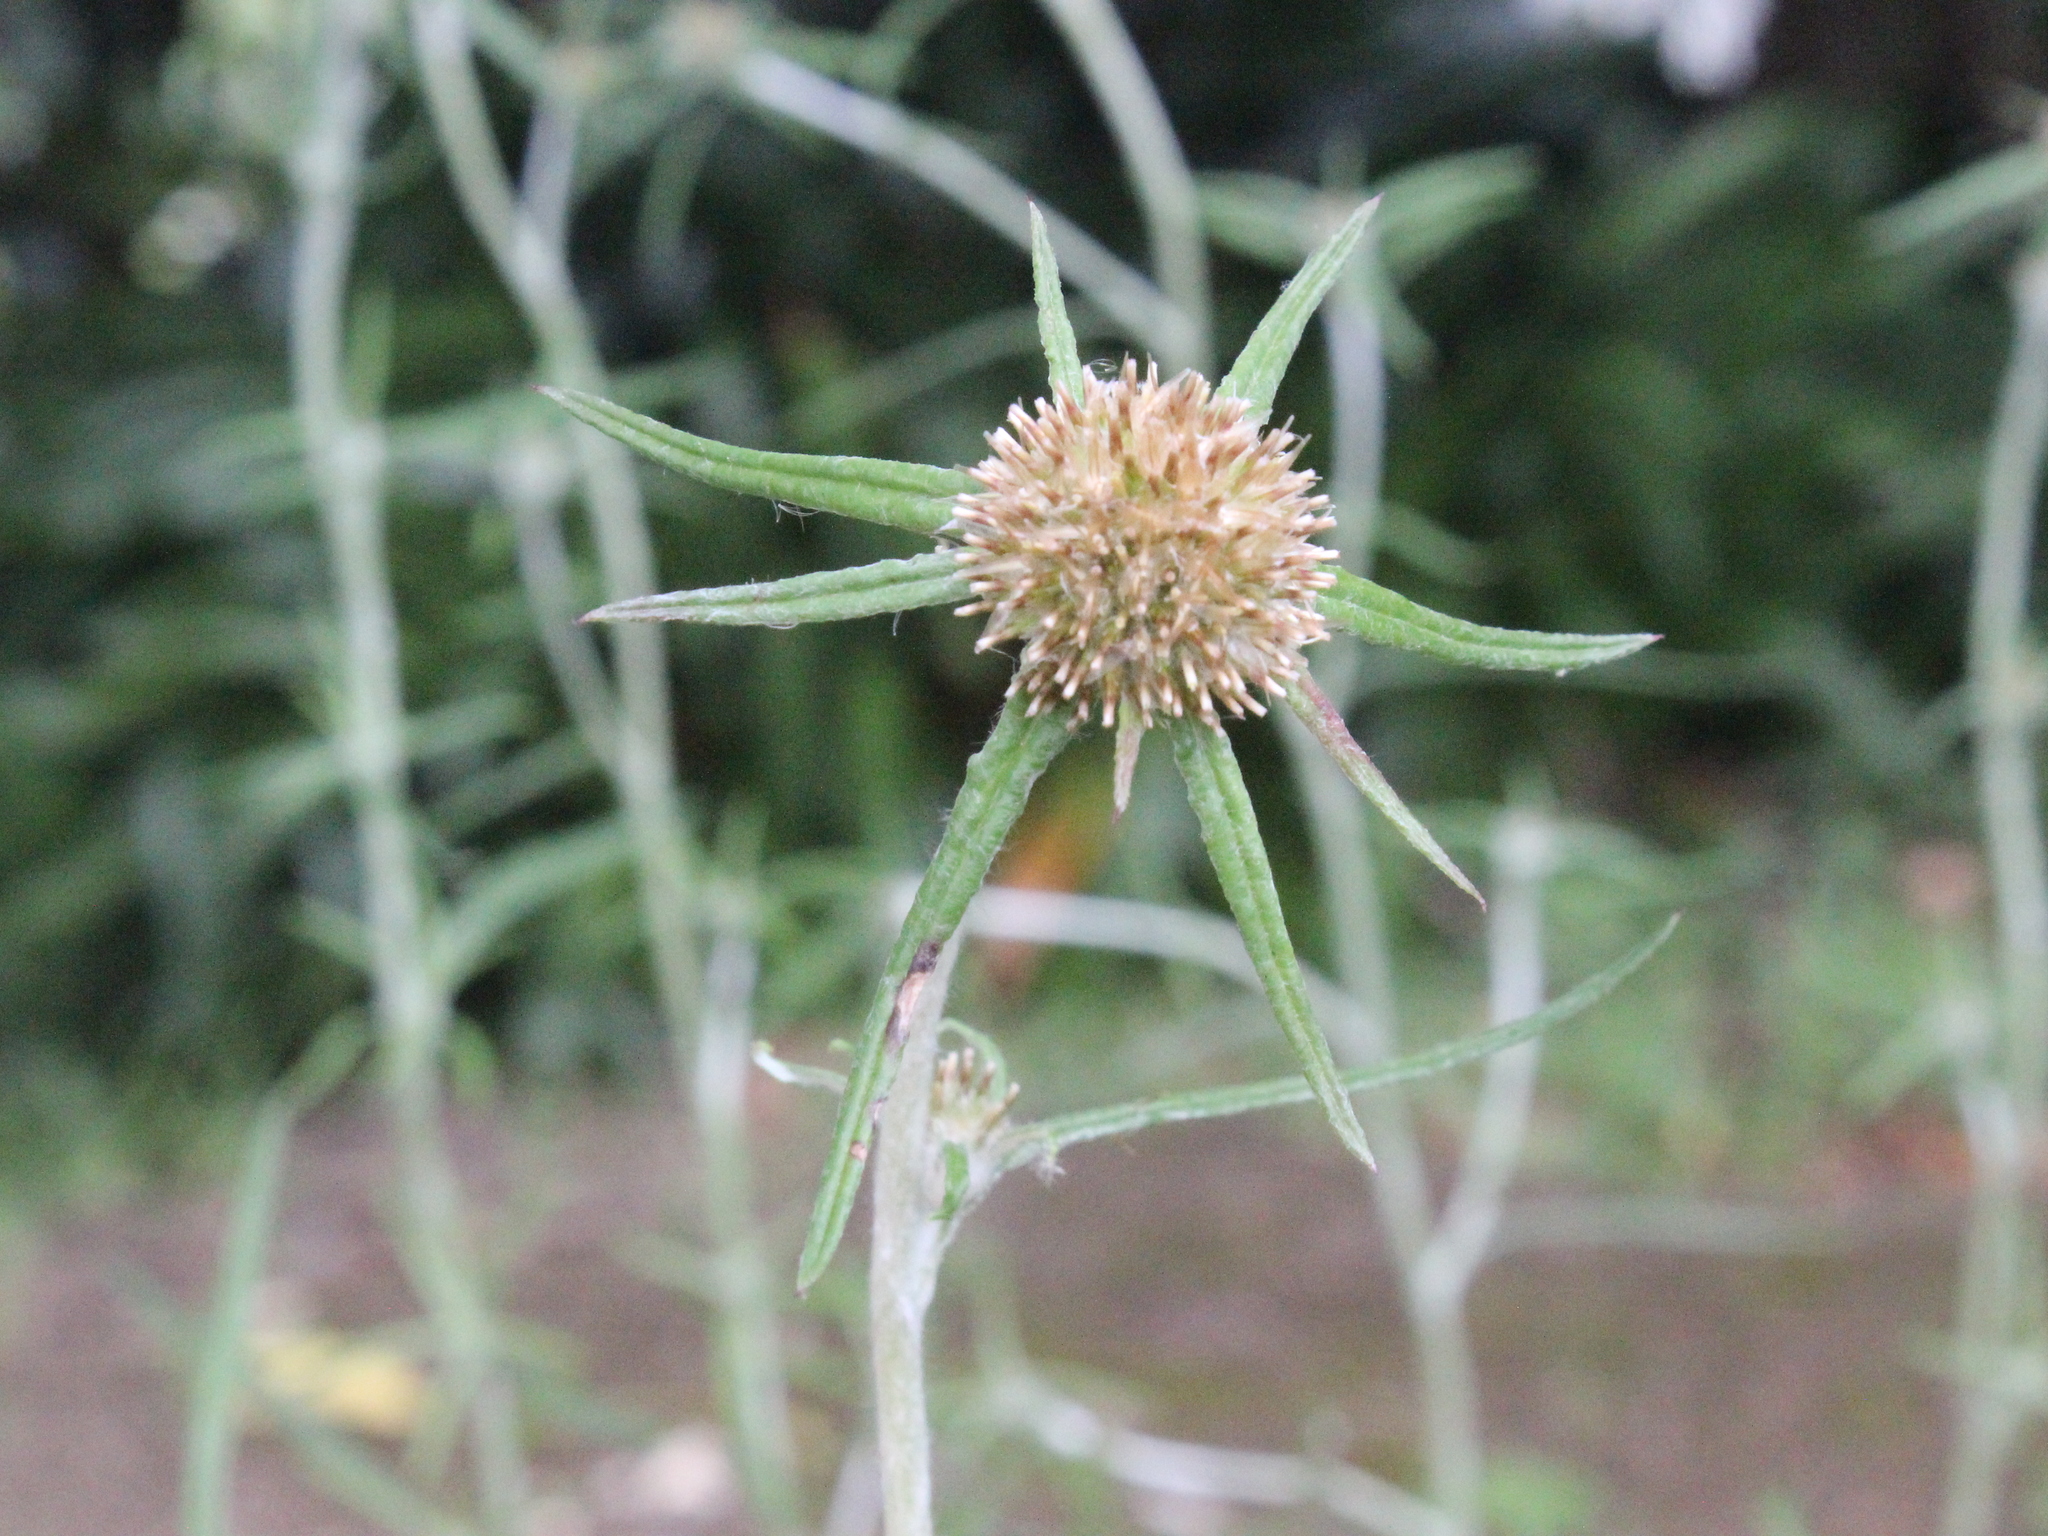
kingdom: Plantae
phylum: Tracheophyta
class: Magnoliopsida
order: Asterales
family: Asteraceae
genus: Euchiton
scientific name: Euchiton sphaericus
